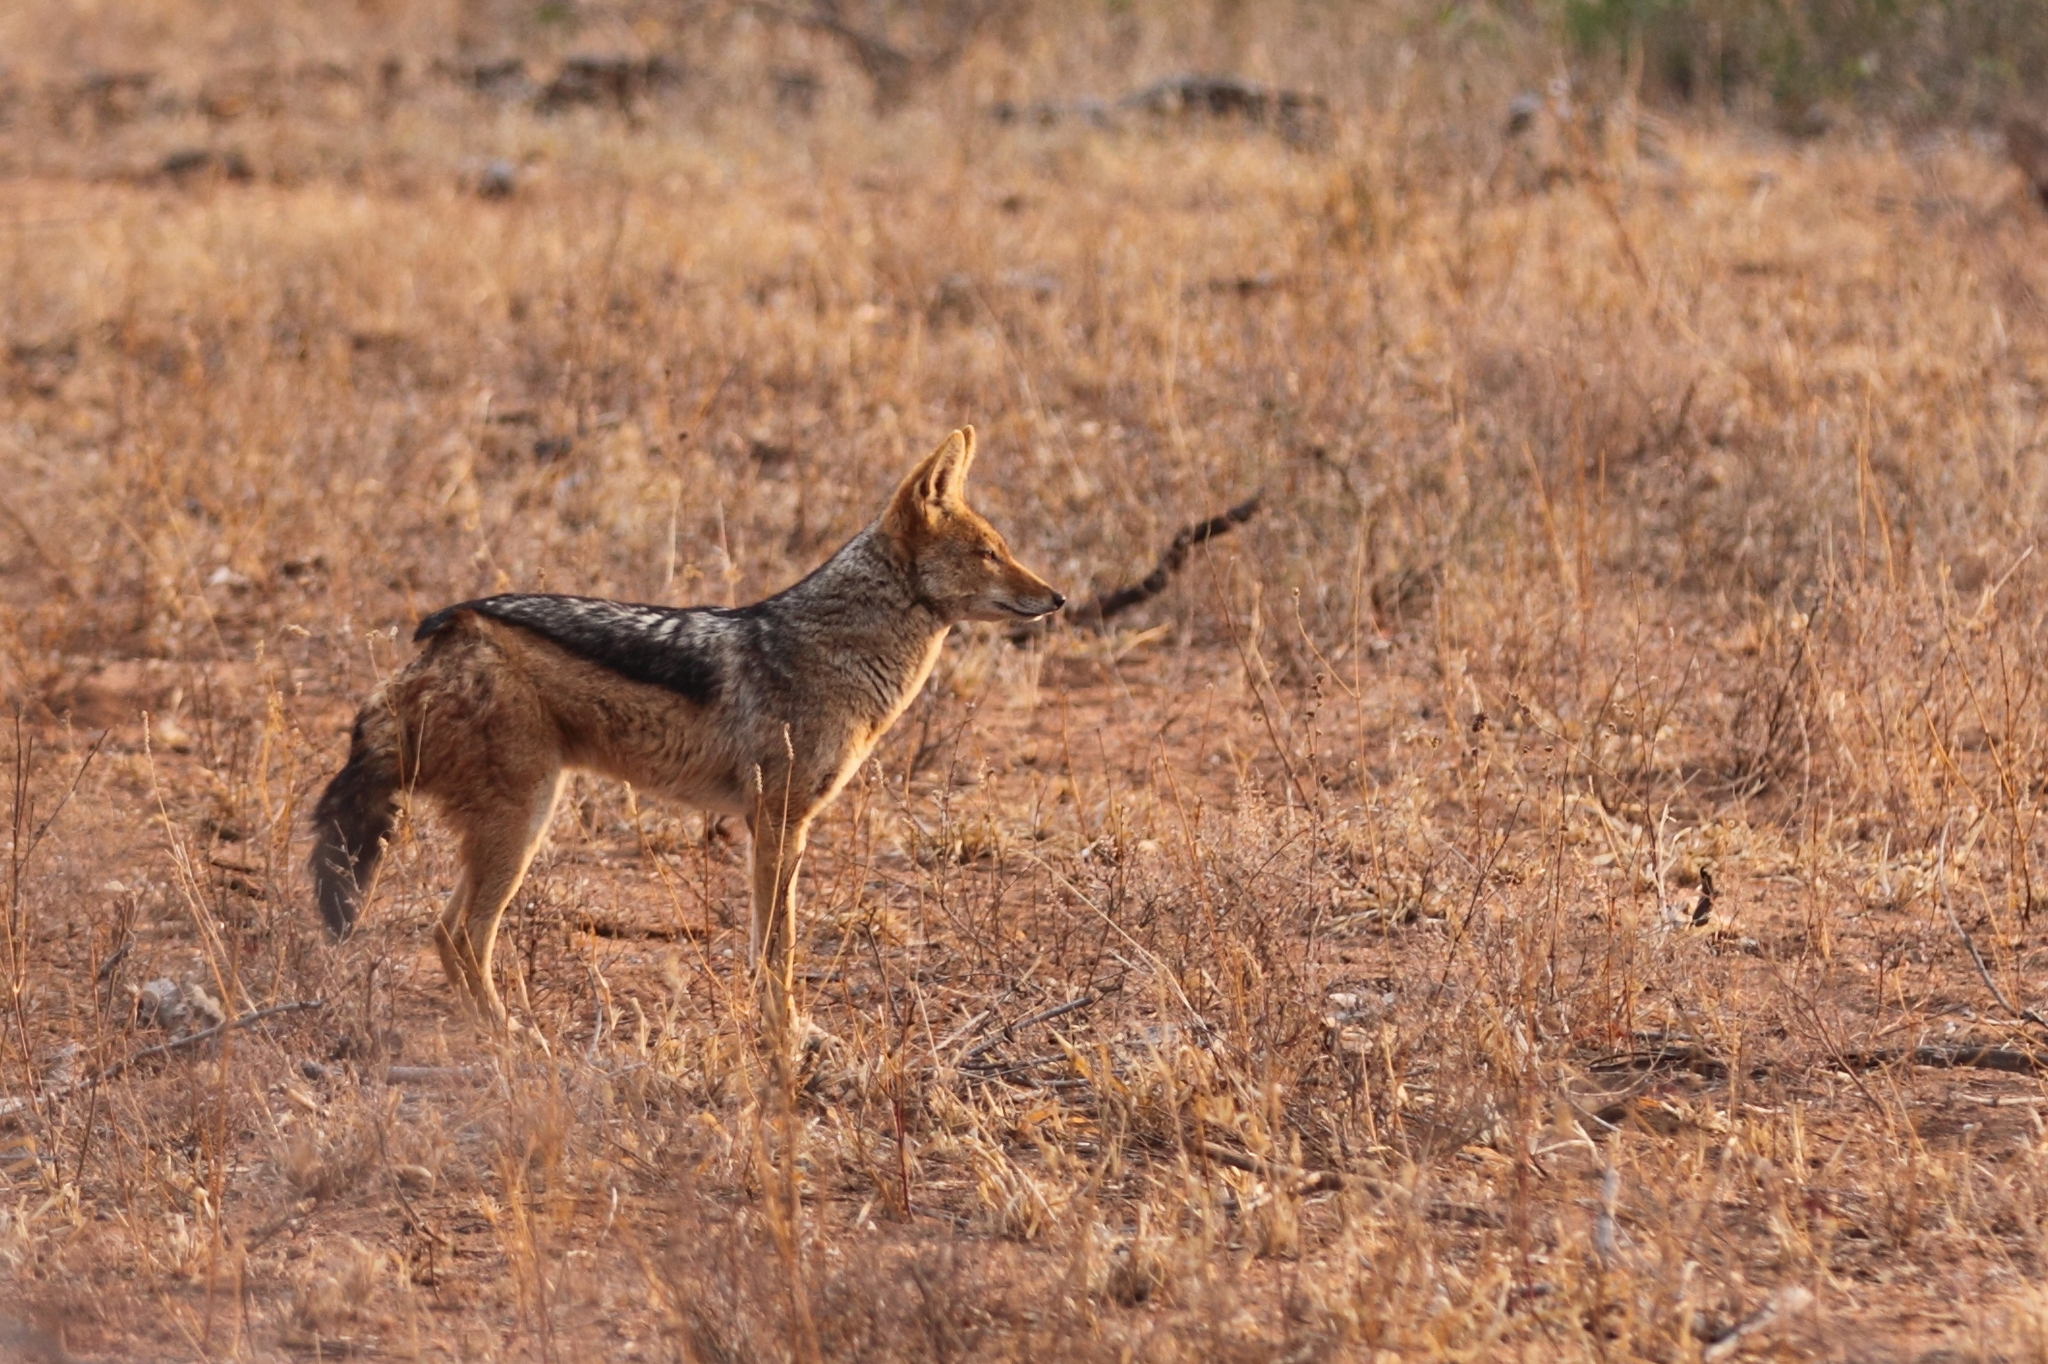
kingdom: Animalia
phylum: Chordata
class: Mammalia
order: Carnivora
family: Canidae
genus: Lupulella
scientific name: Lupulella
